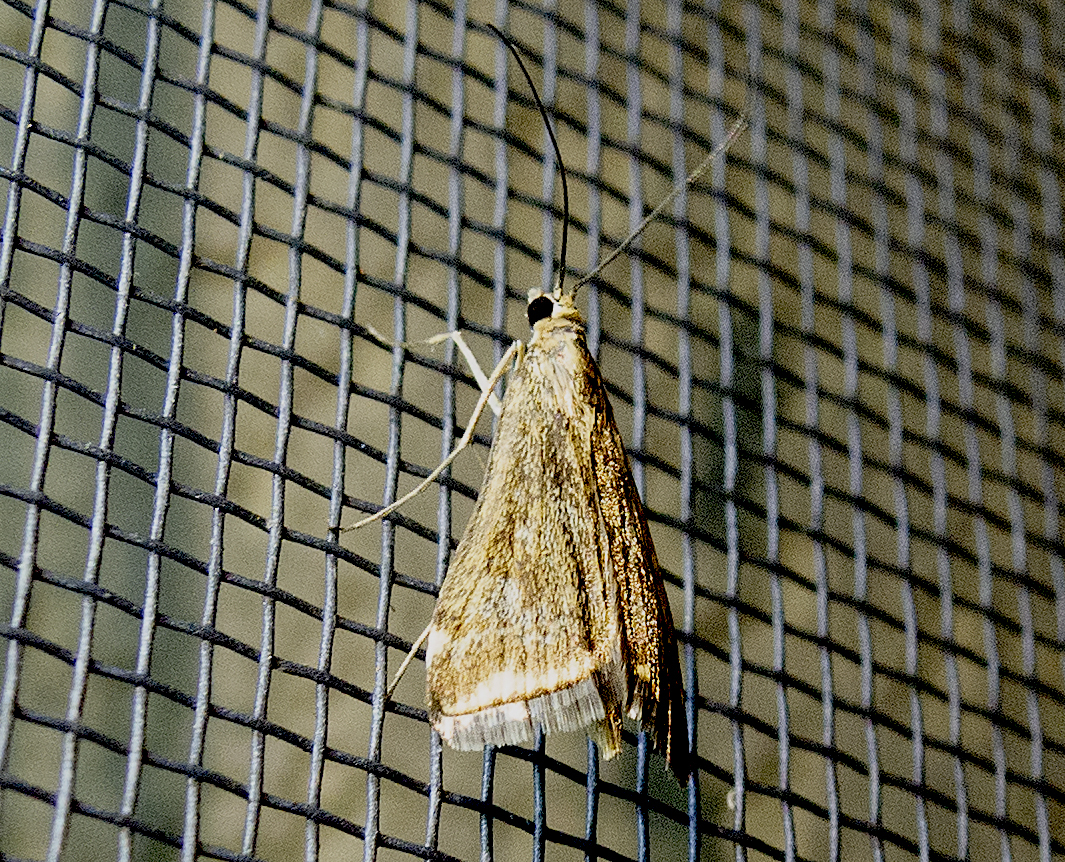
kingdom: Animalia
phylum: Arthropoda
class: Insecta
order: Lepidoptera
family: Crambidae
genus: Loxostege
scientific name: Loxostege sticticalis
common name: Crambid moth
